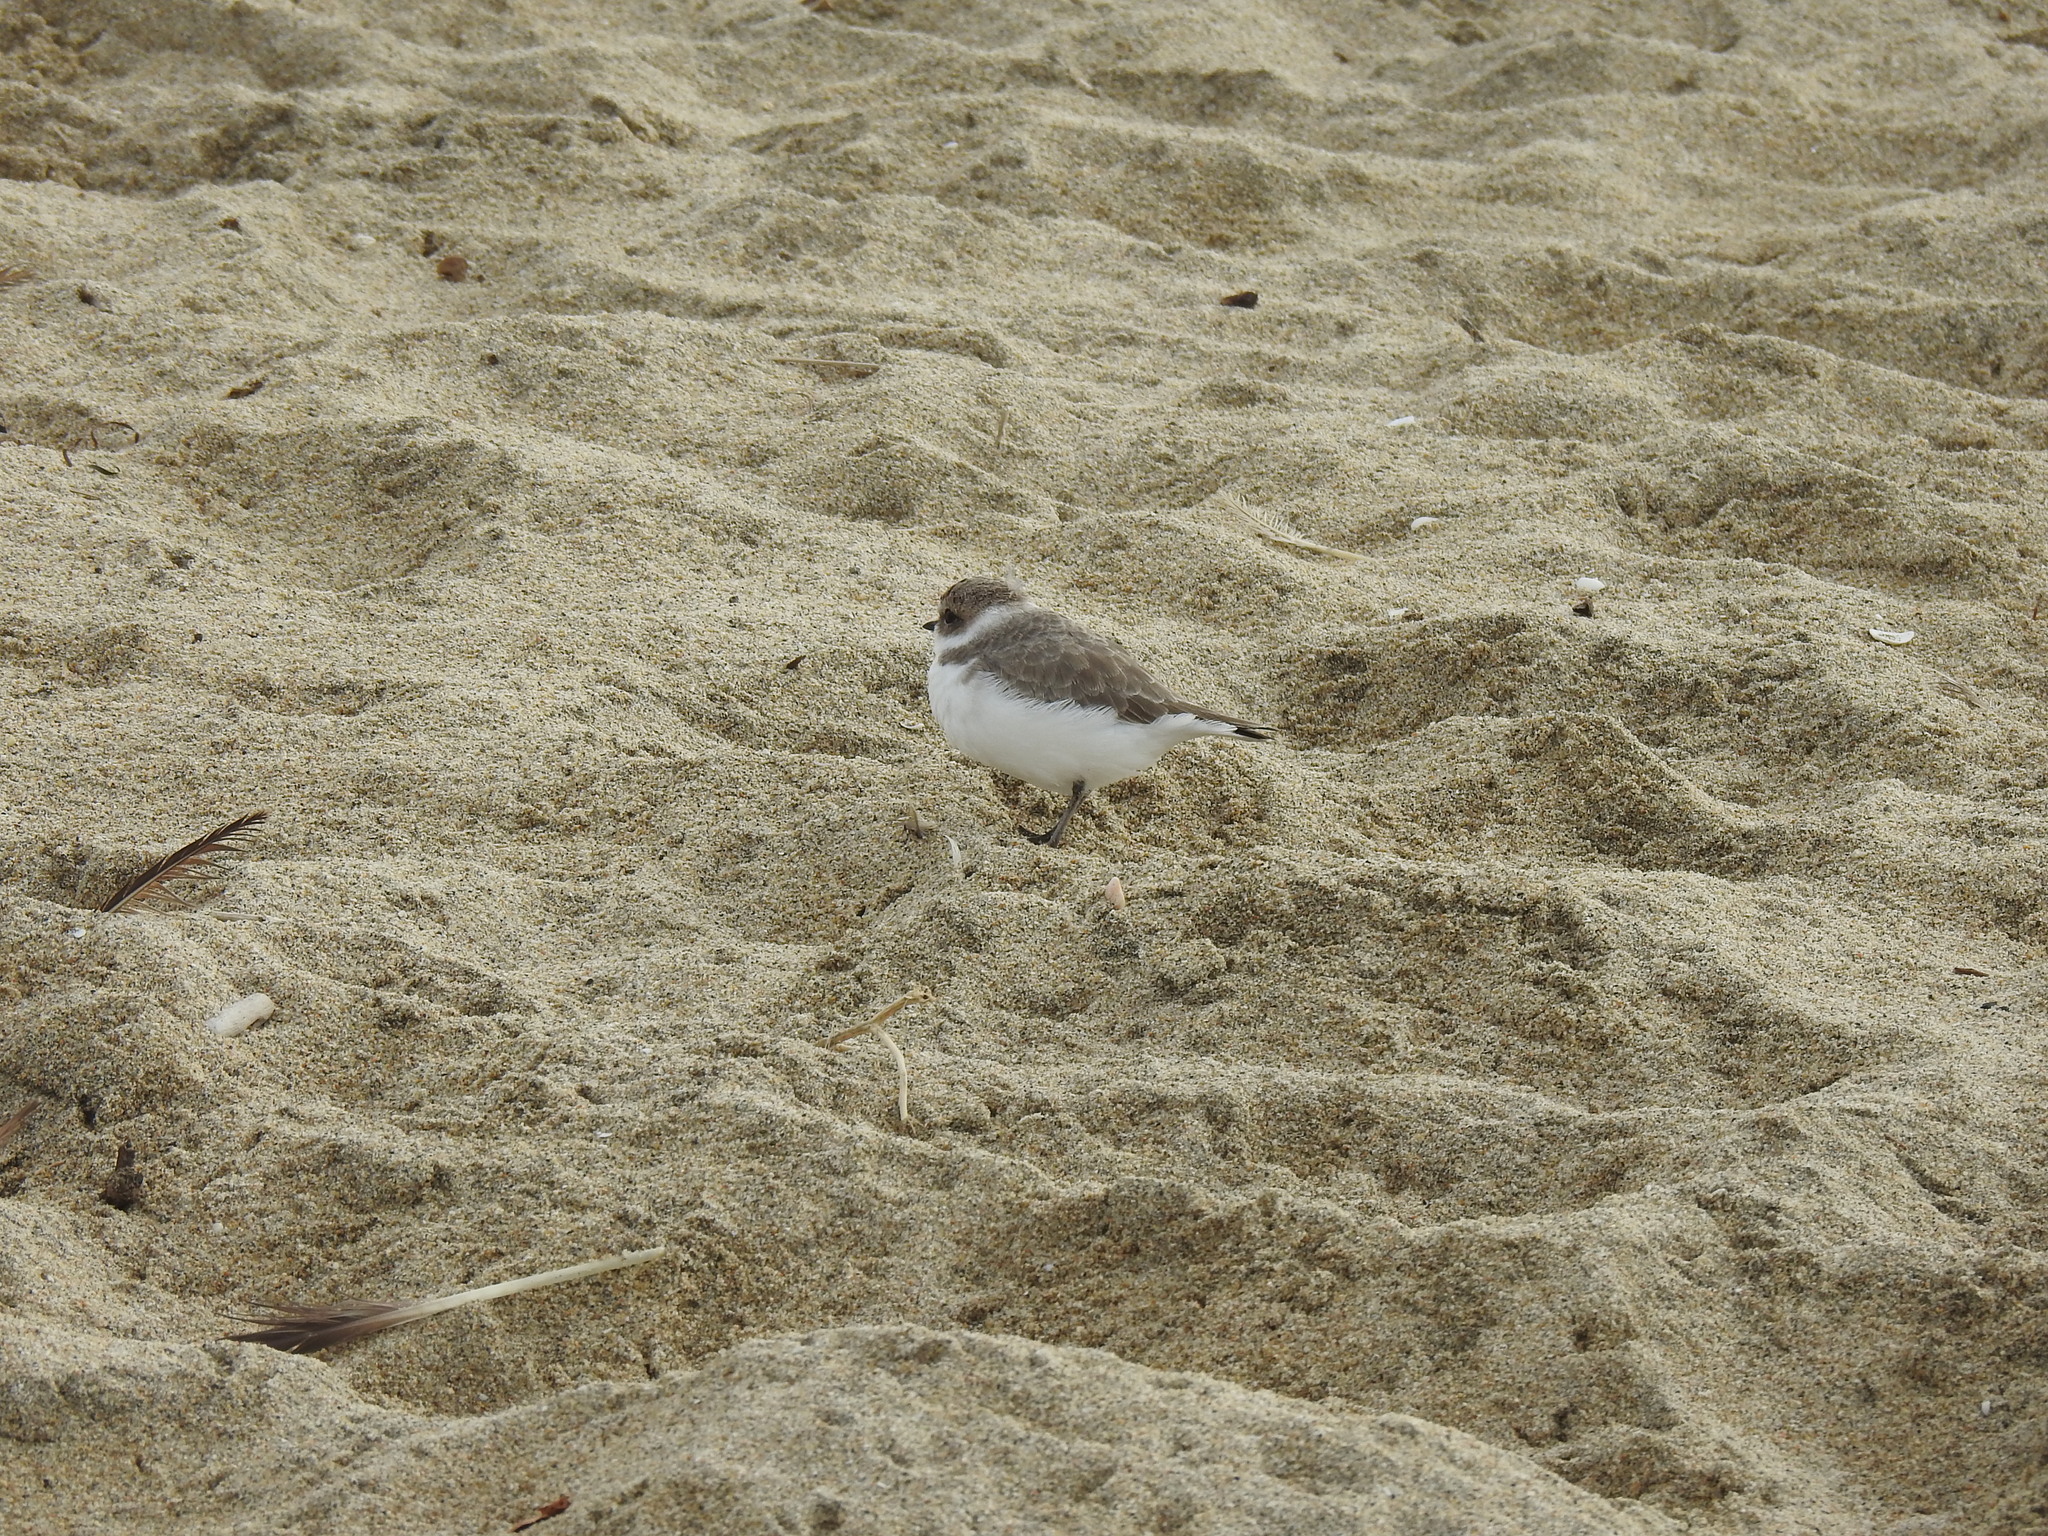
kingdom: Animalia
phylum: Chordata
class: Aves
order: Charadriiformes
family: Charadriidae
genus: Anarhynchus
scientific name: Anarhynchus
